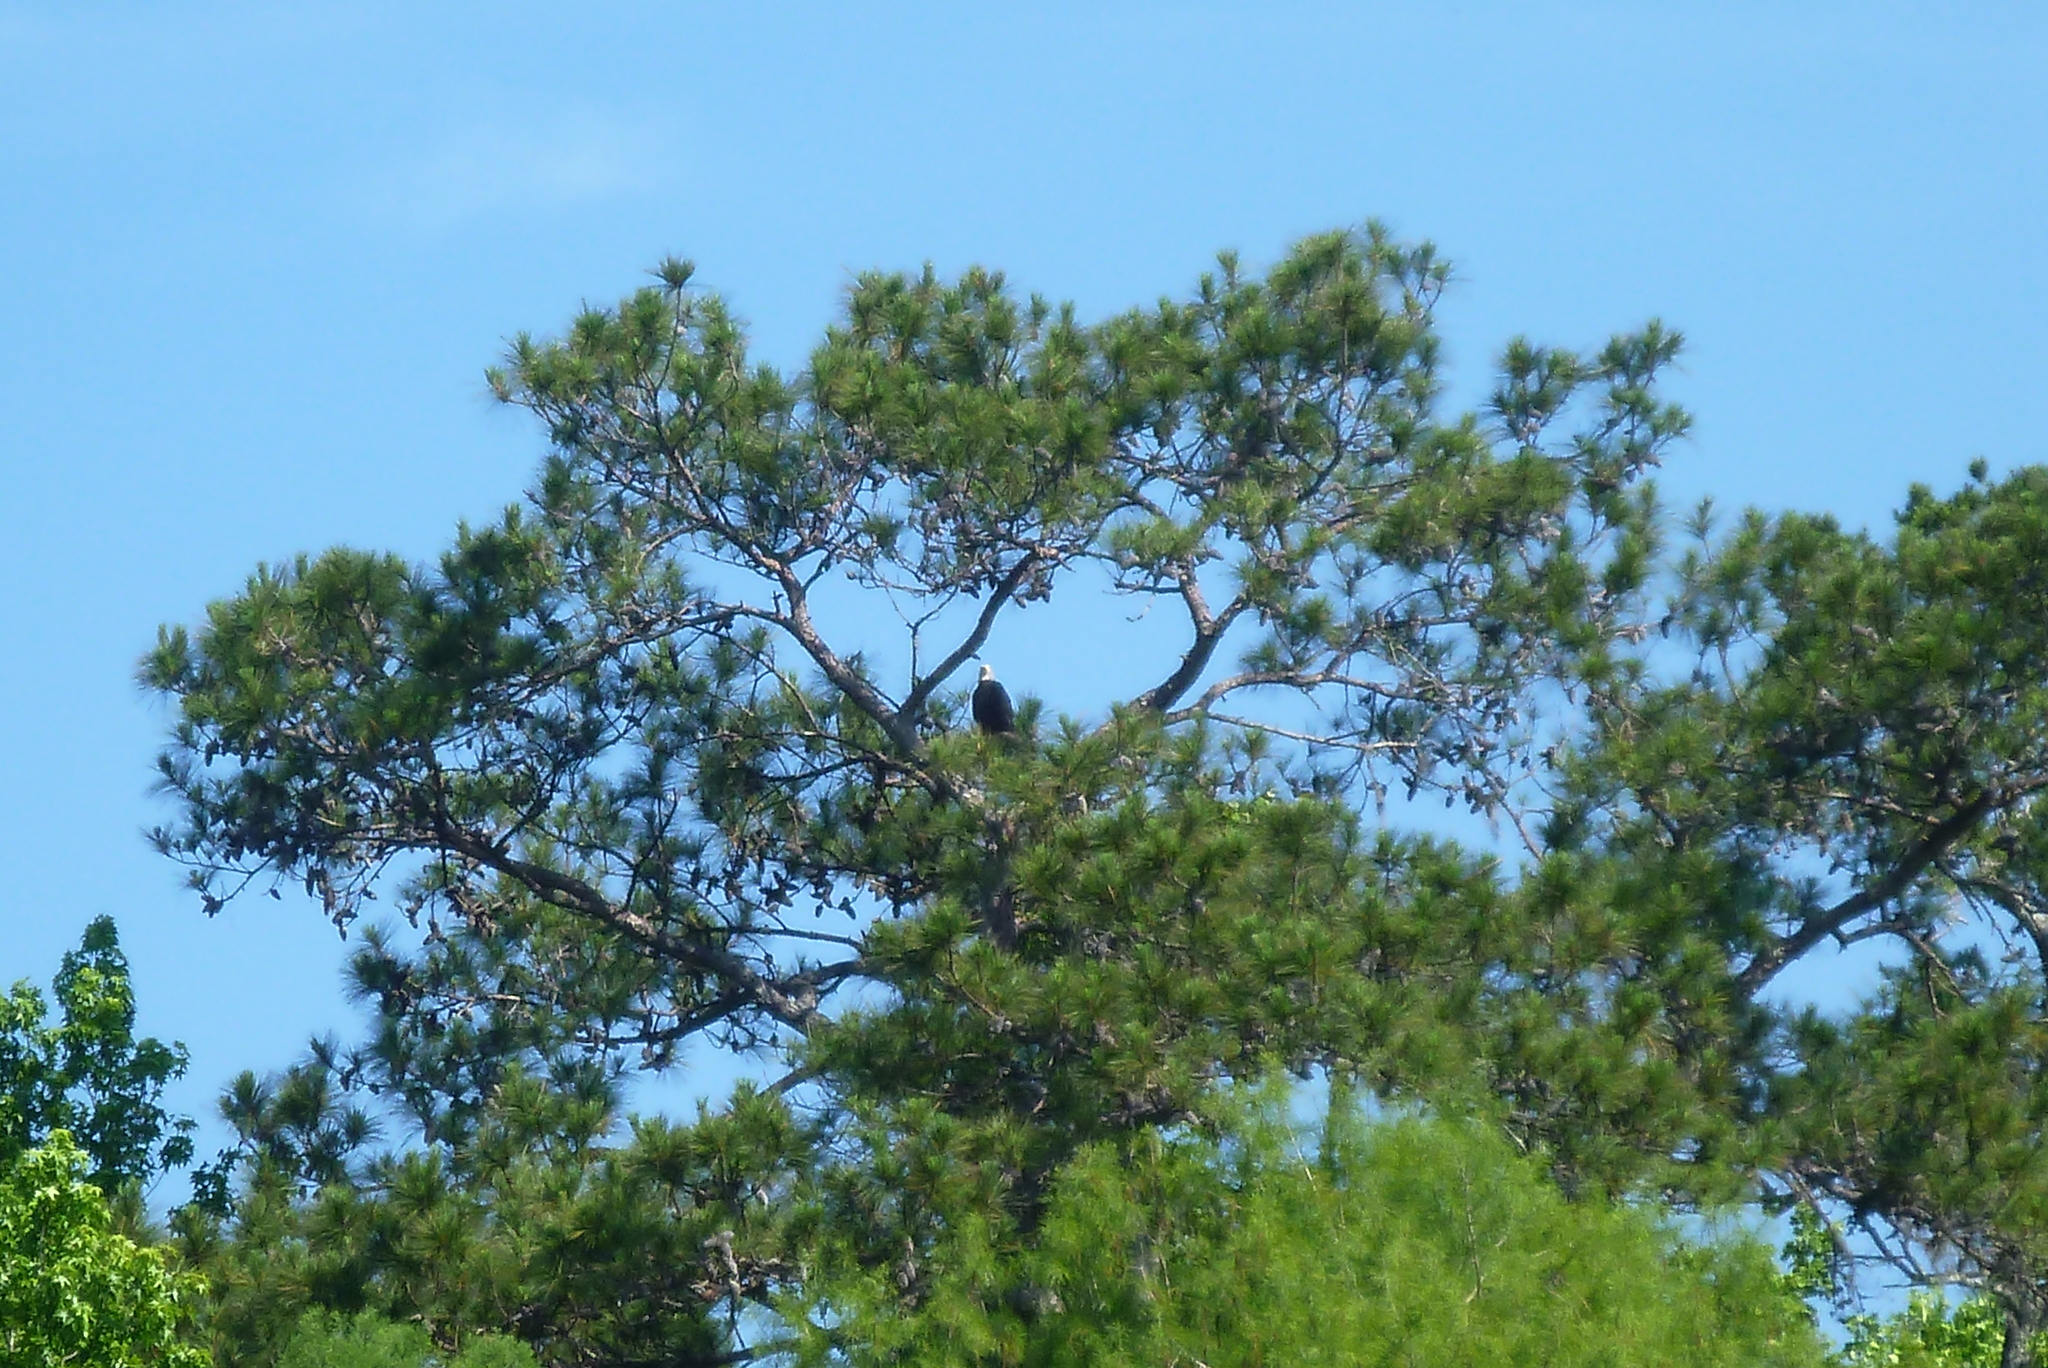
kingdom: Animalia
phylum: Chordata
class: Aves
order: Accipitriformes
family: Accipitridae
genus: Haliaeetus
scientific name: Haliaeetus leucocephalus
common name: Bald eagle
